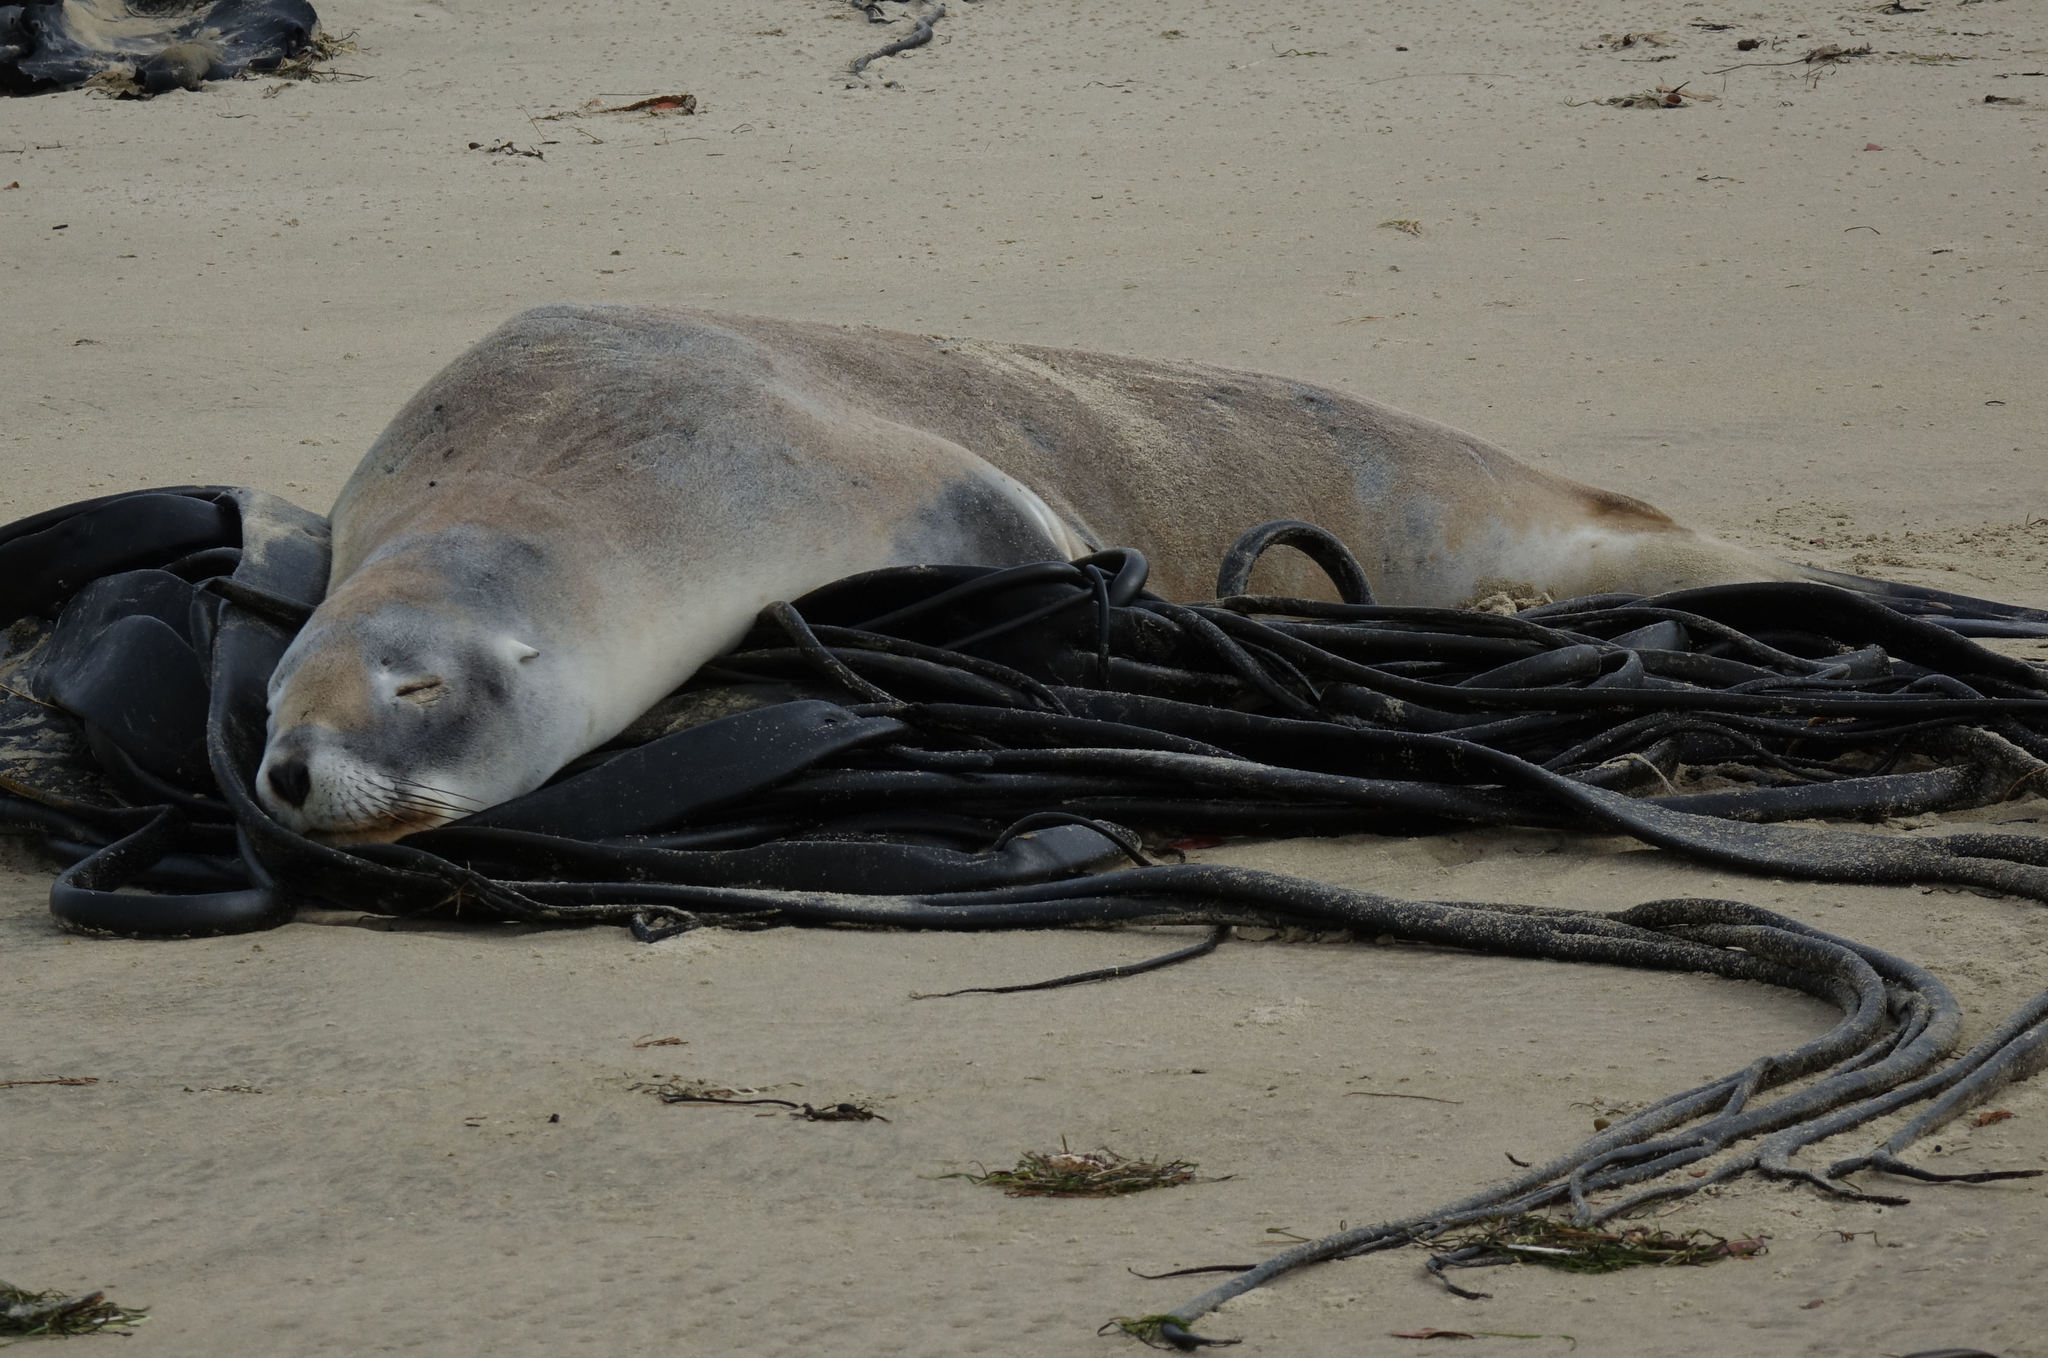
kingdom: Animalia
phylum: Chordata
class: Mammalia
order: Carnivora
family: Otariidae
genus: Phocarctos
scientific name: Phocarctos hookeri
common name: New zealand sea lion
